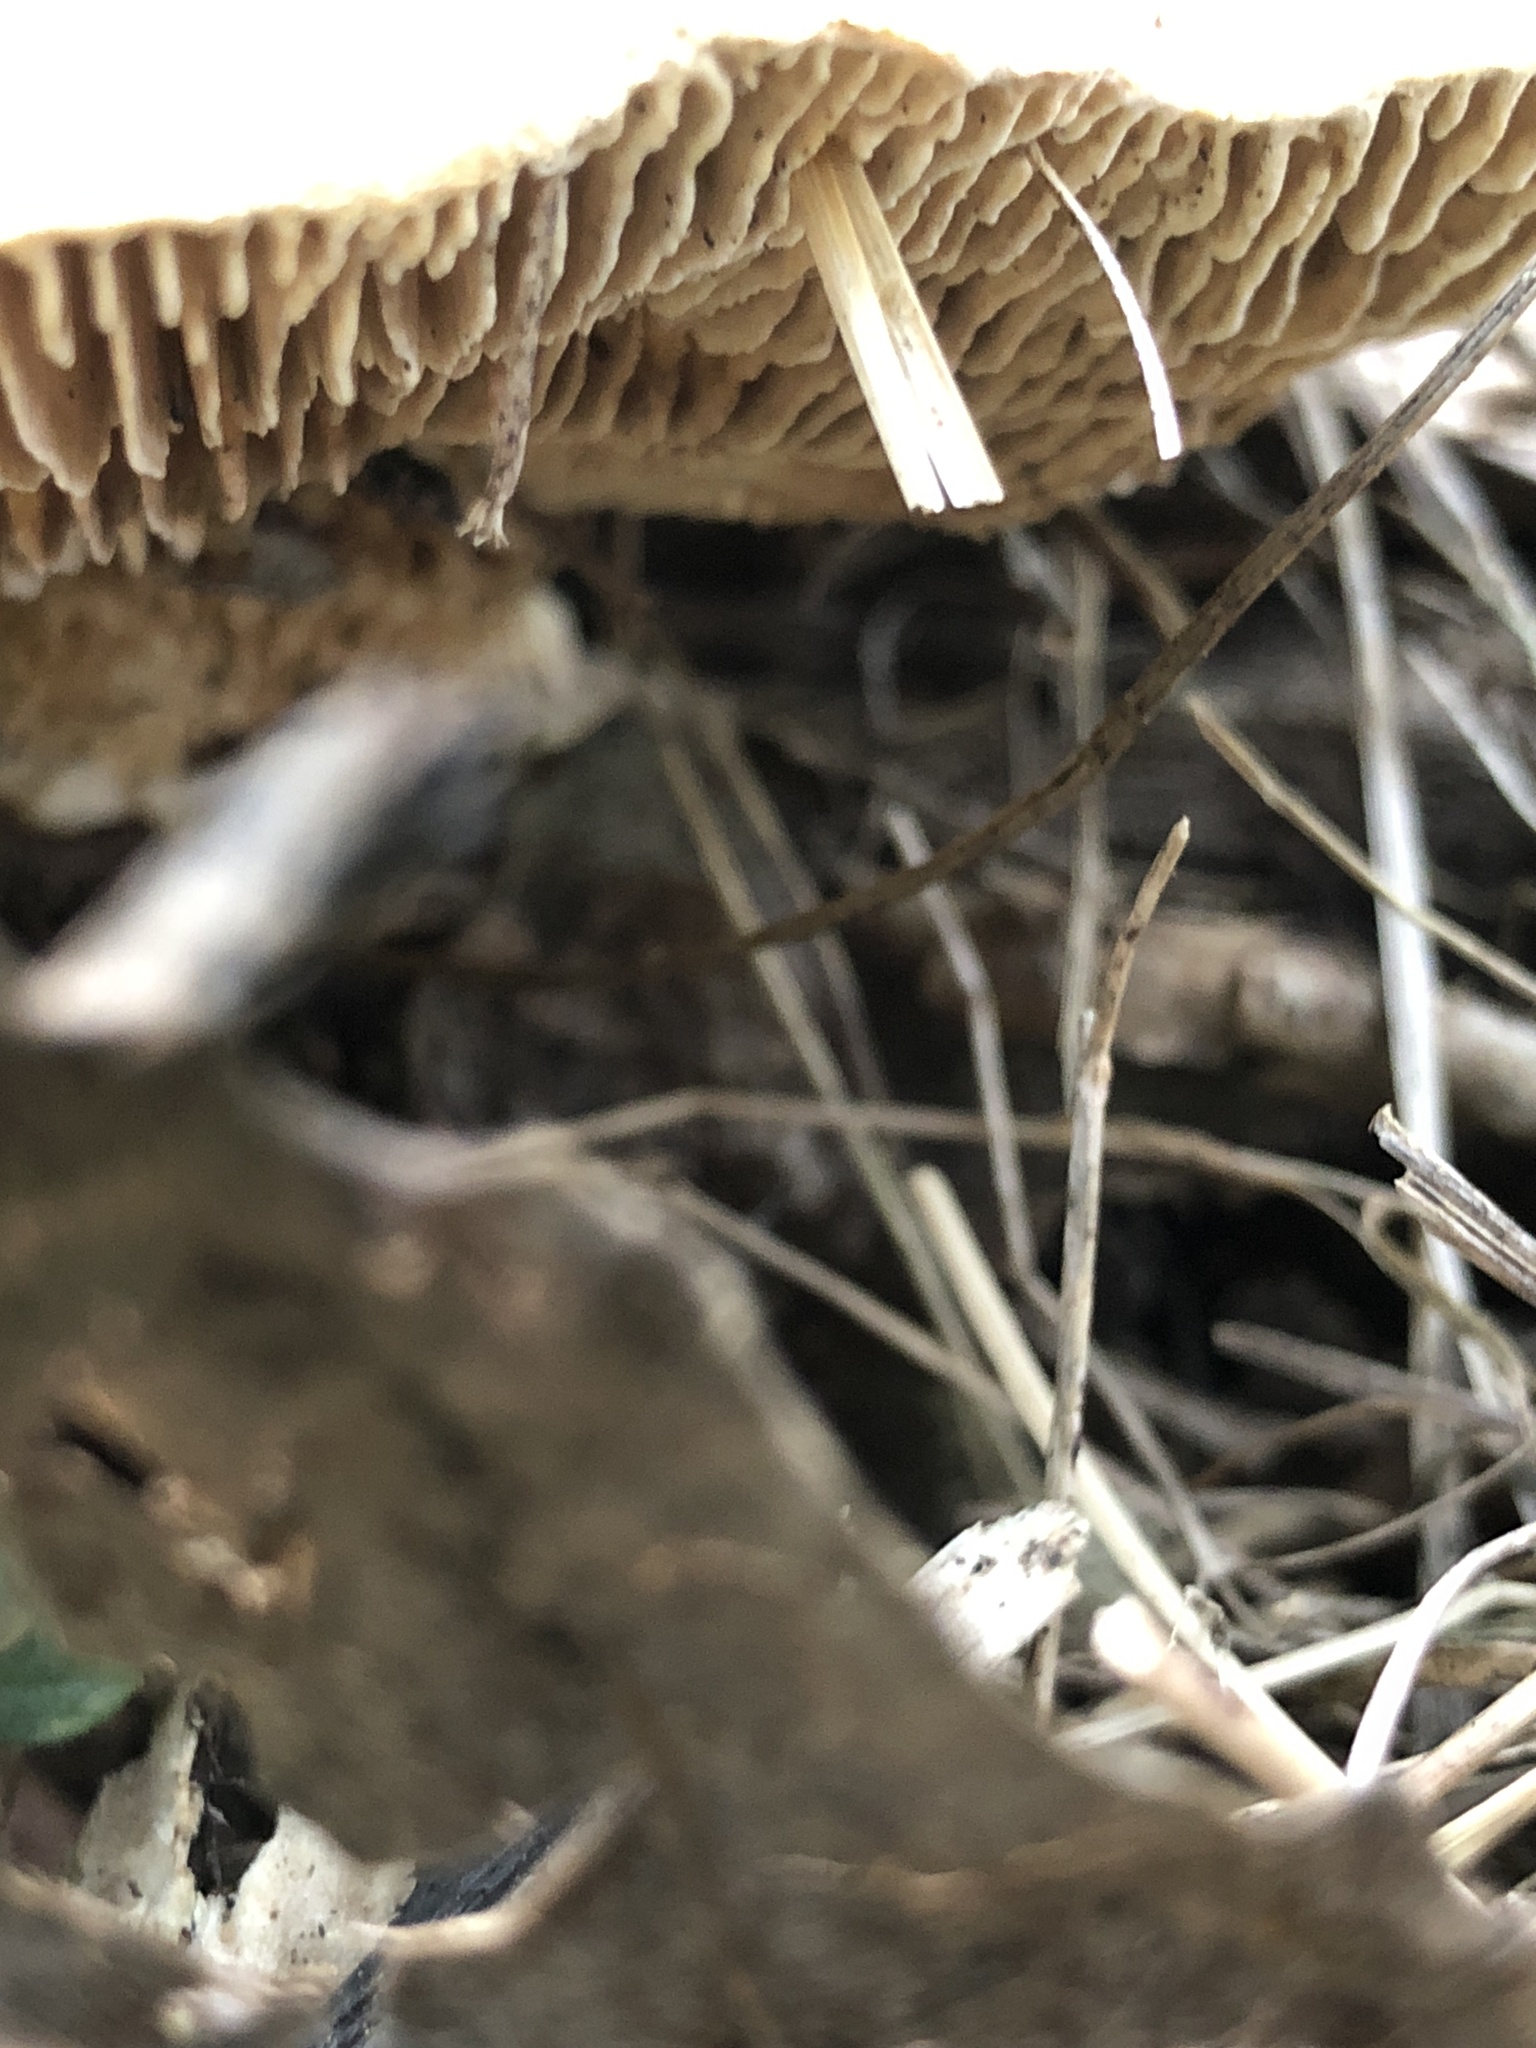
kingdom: Fungi
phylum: Basidiomycota
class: Agaricomycetes
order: Polyporales
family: Polyporaceae
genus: Lenzites
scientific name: Lenzites betulinus
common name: Birch mazegill
